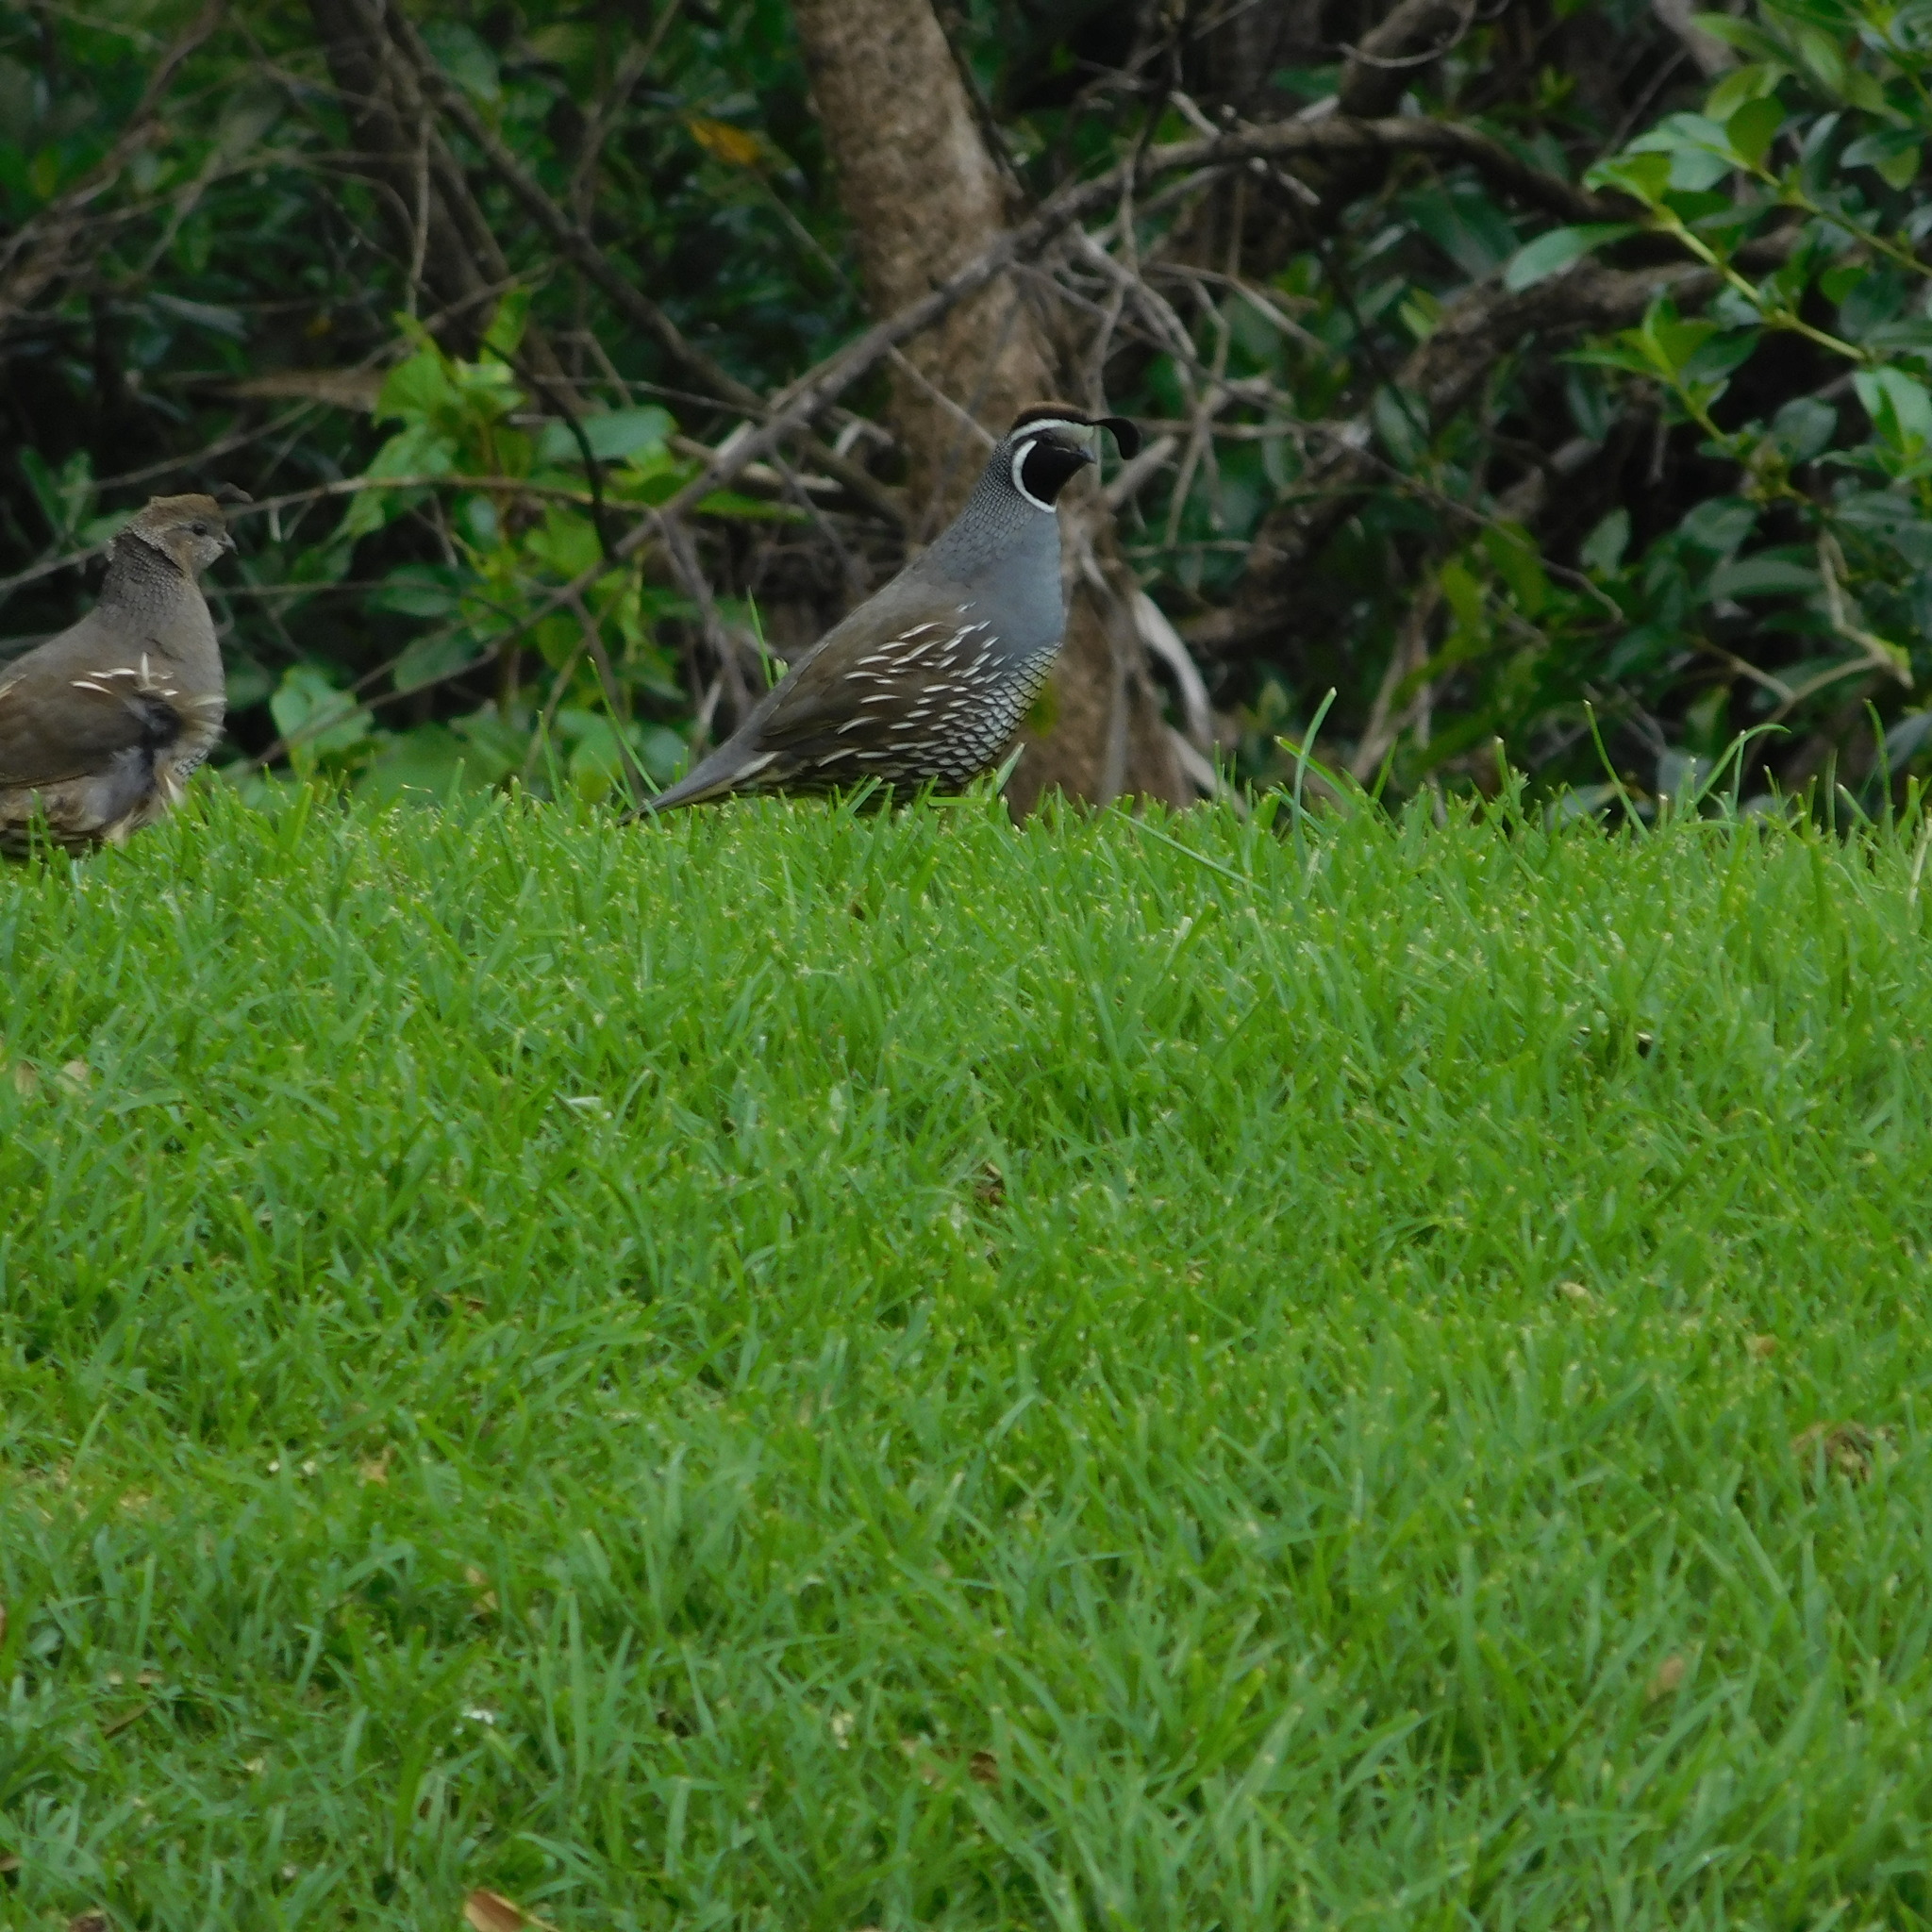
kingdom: Animalia
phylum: Chordata
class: Aves
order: Galliformes
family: Odontophoridae
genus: Callipepla
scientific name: Callipepla californica
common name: California quail
